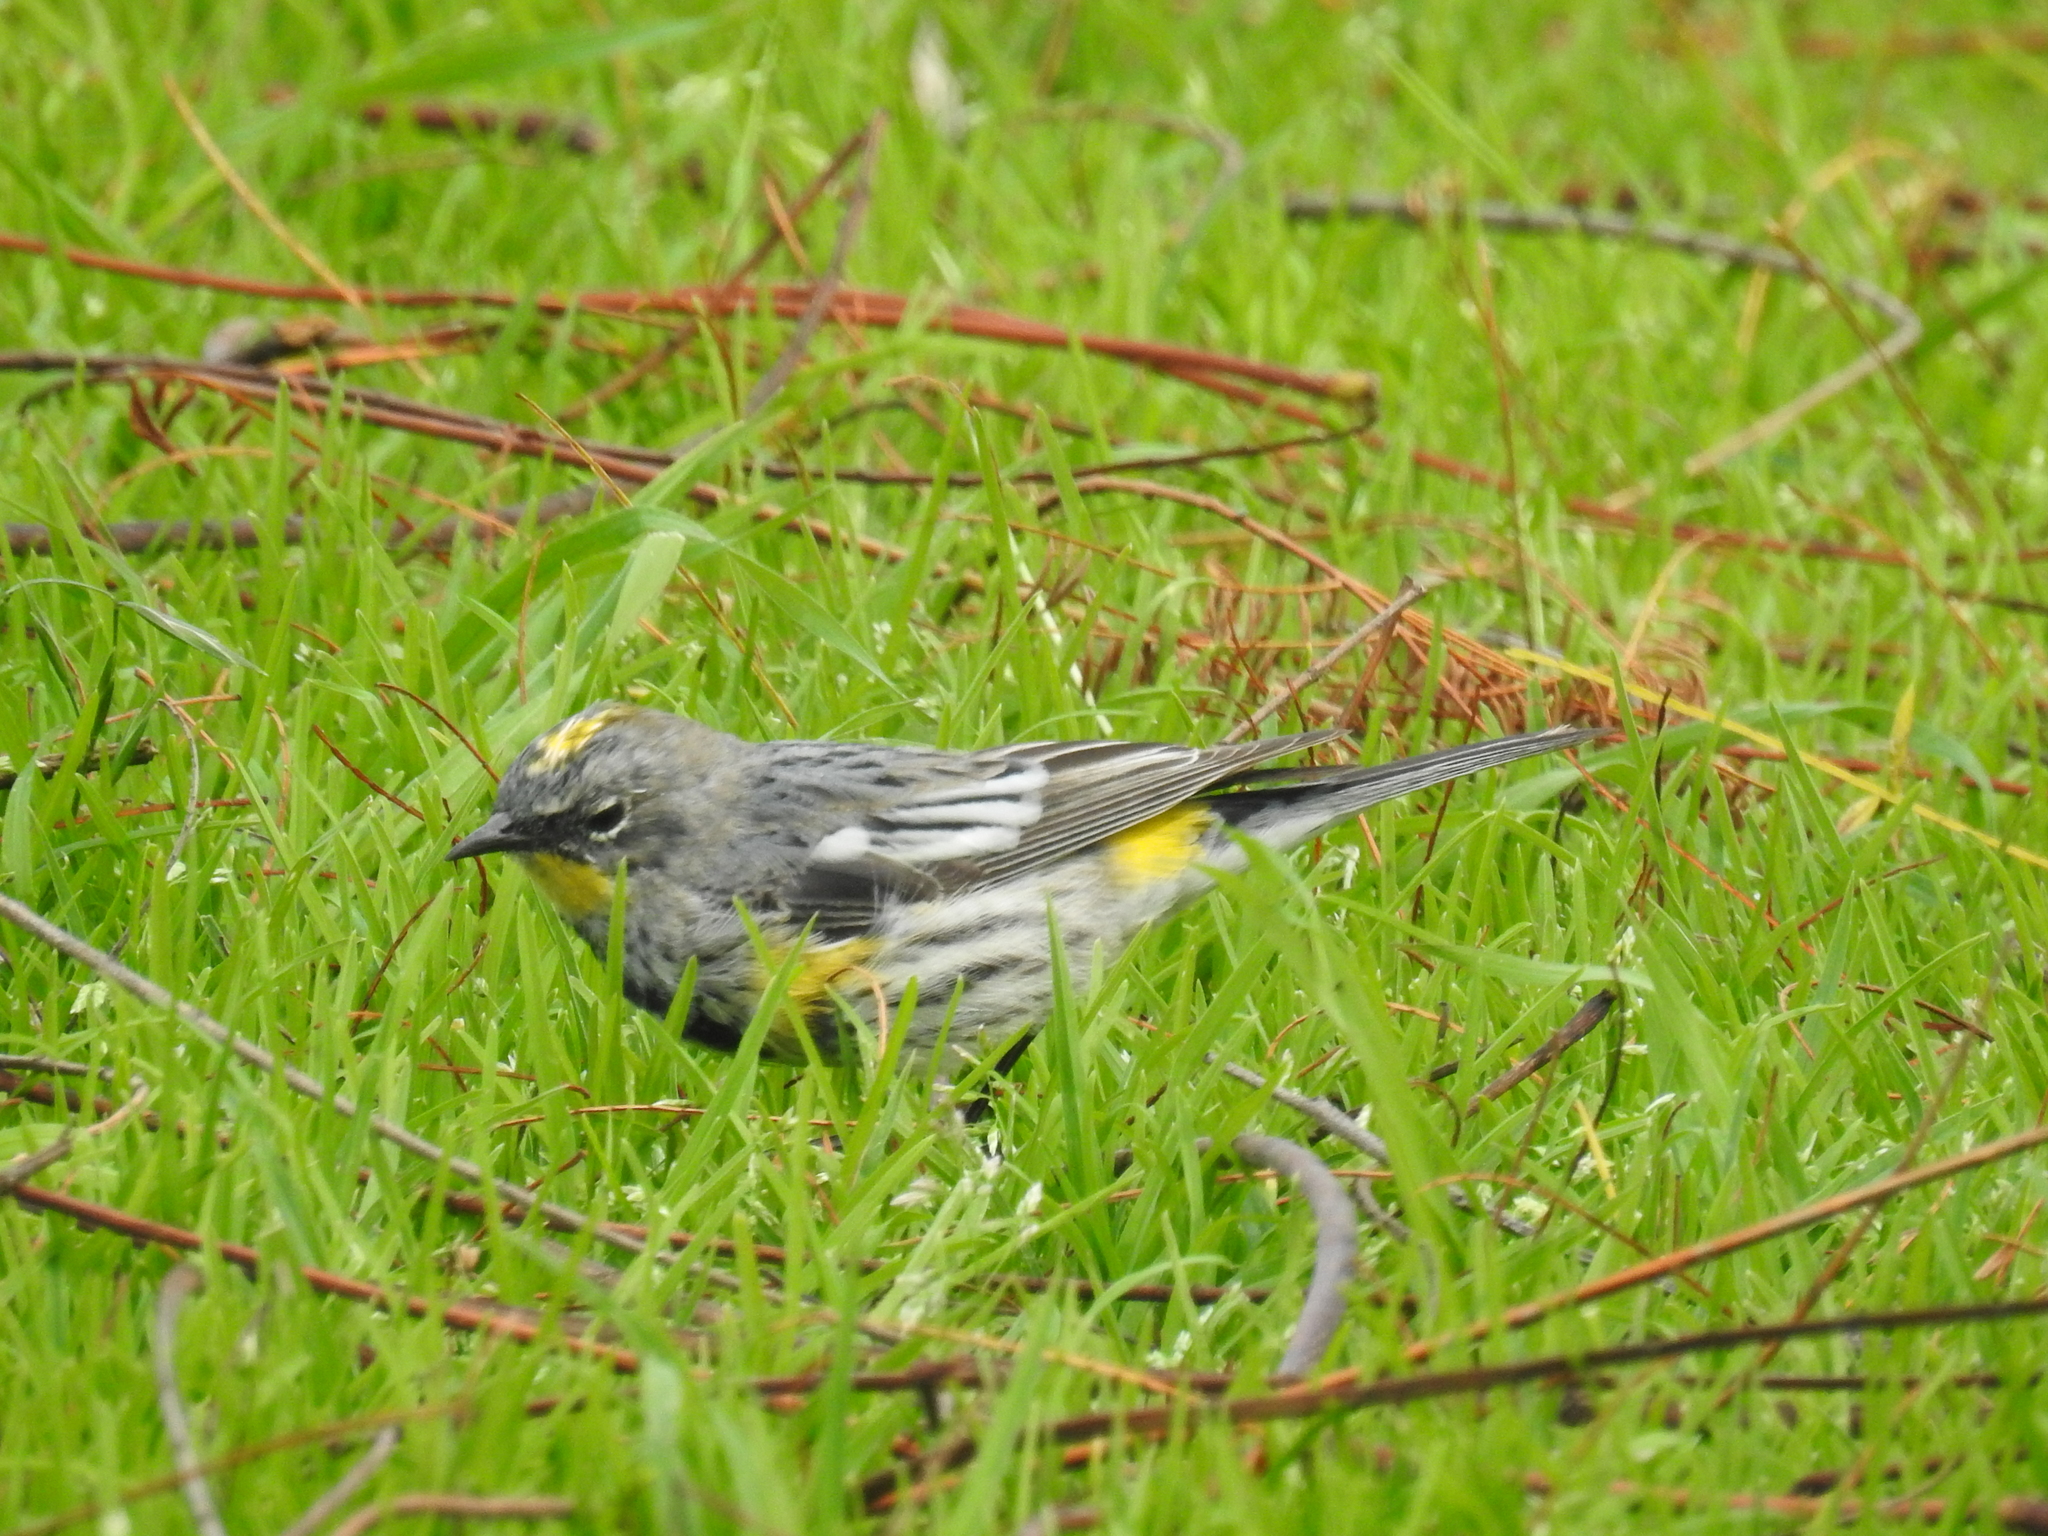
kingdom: Animalia
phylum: Chordata
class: Aves
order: Passeriformes
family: Parulidae
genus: Setophaga
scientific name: Setophaga coronata
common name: Myrtle warbler
